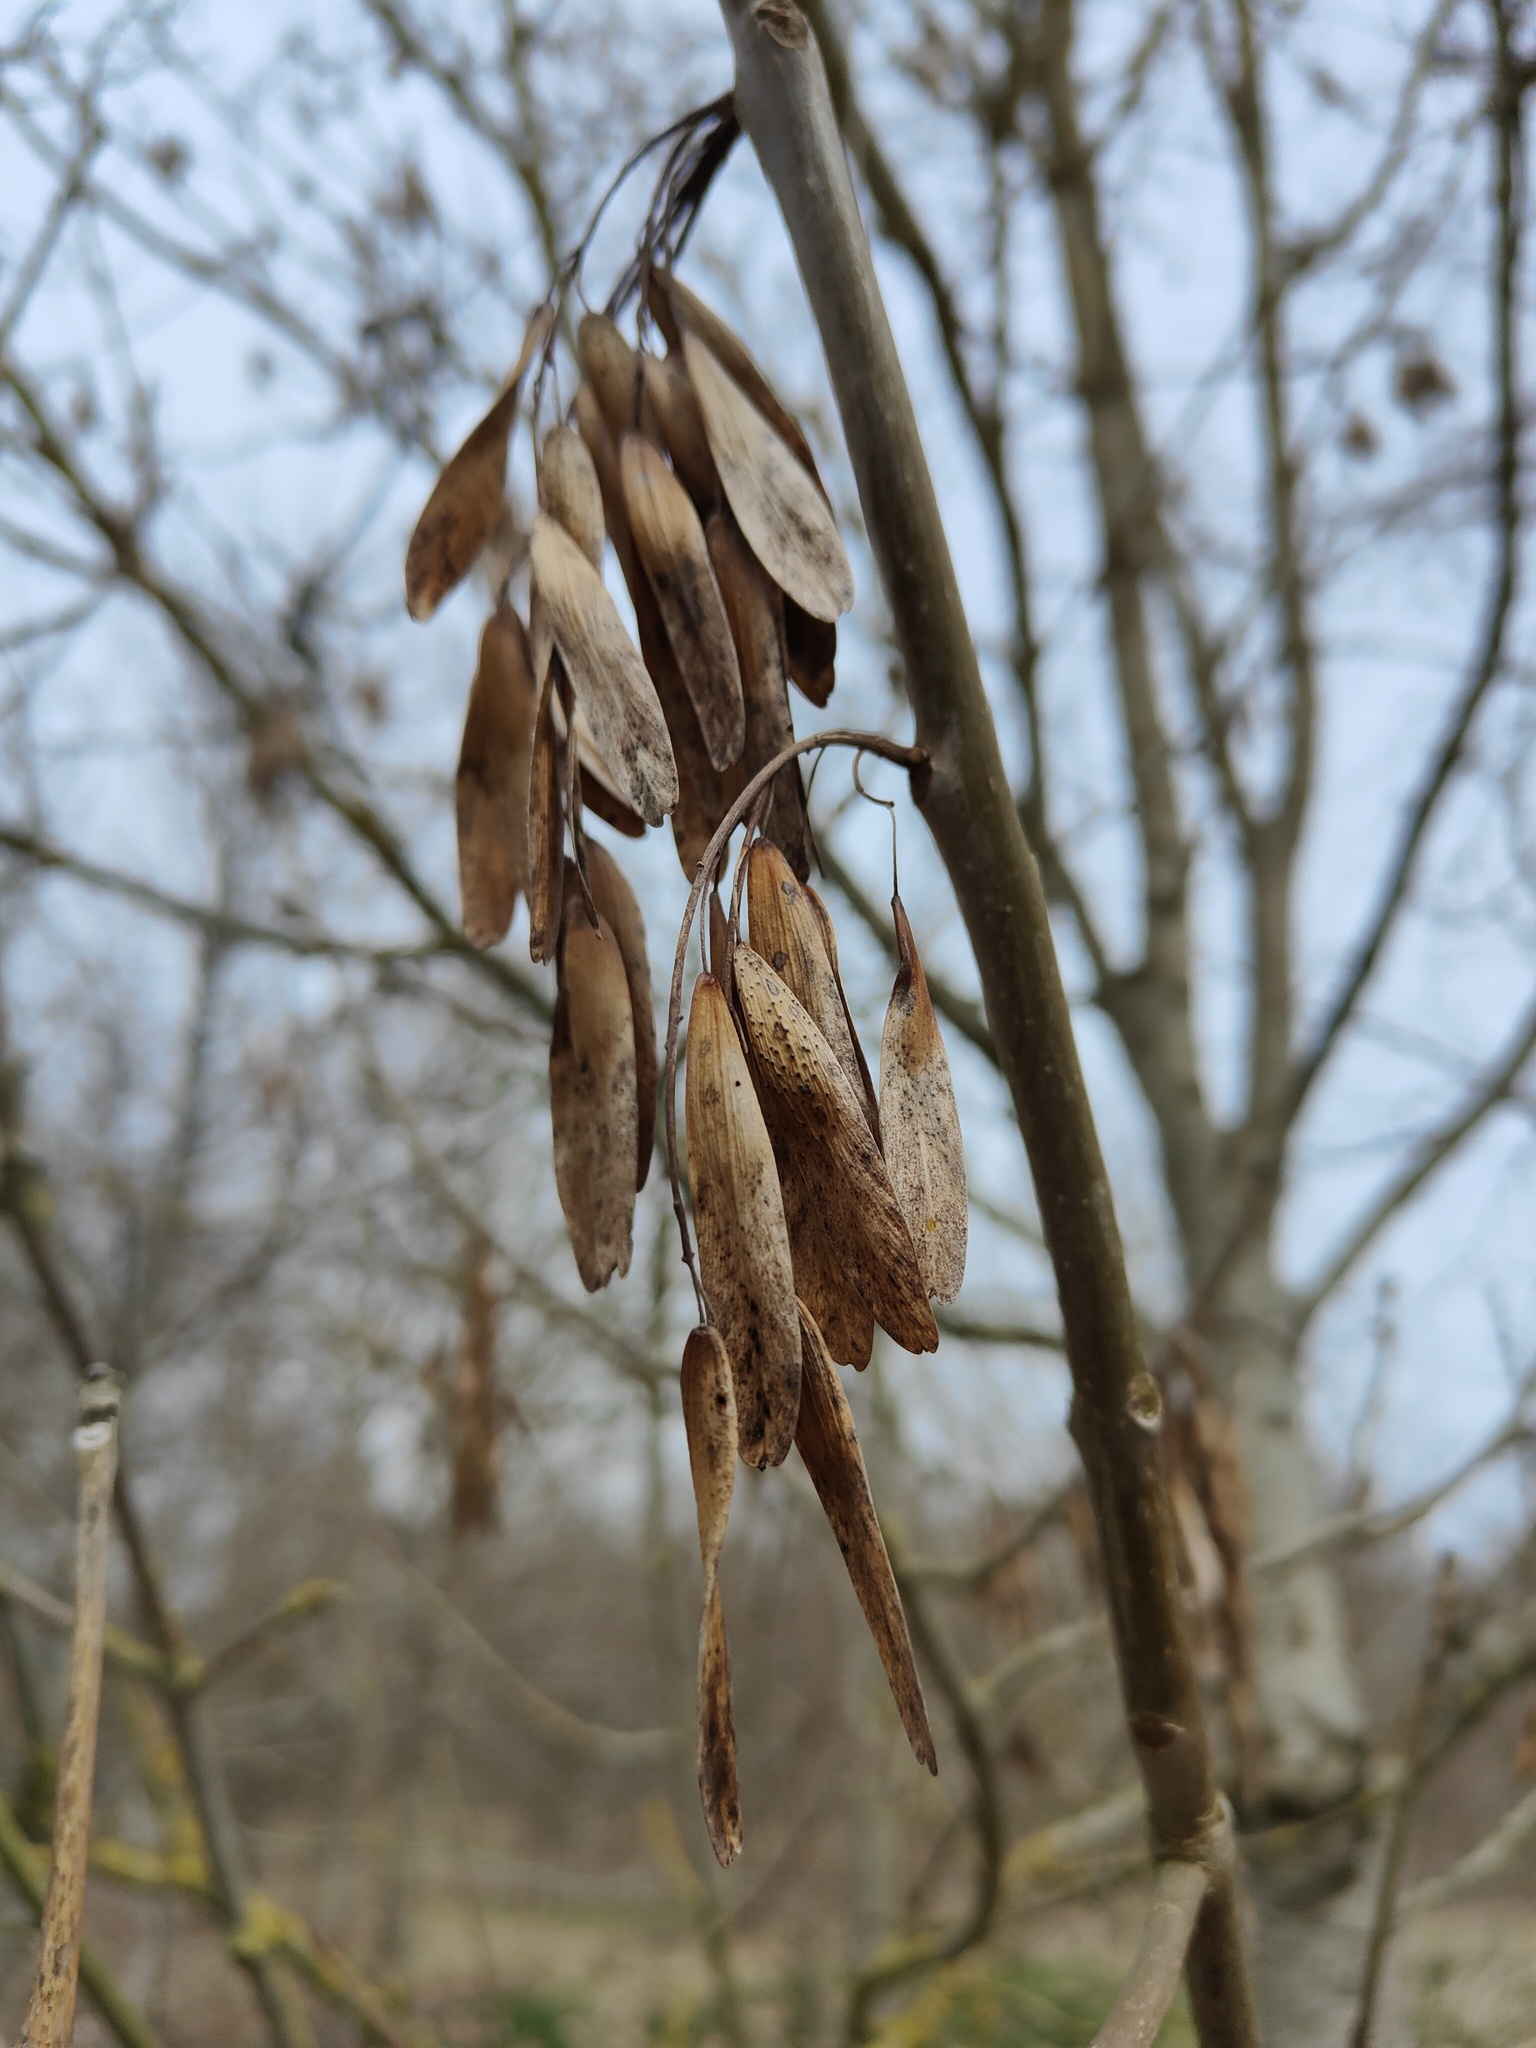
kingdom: Plantae
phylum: Tracheophyta
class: Magnoliopsida
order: Lamiales
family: Oleaceae
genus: Fraxinus
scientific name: Fraxinus excelsior
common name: European ash
